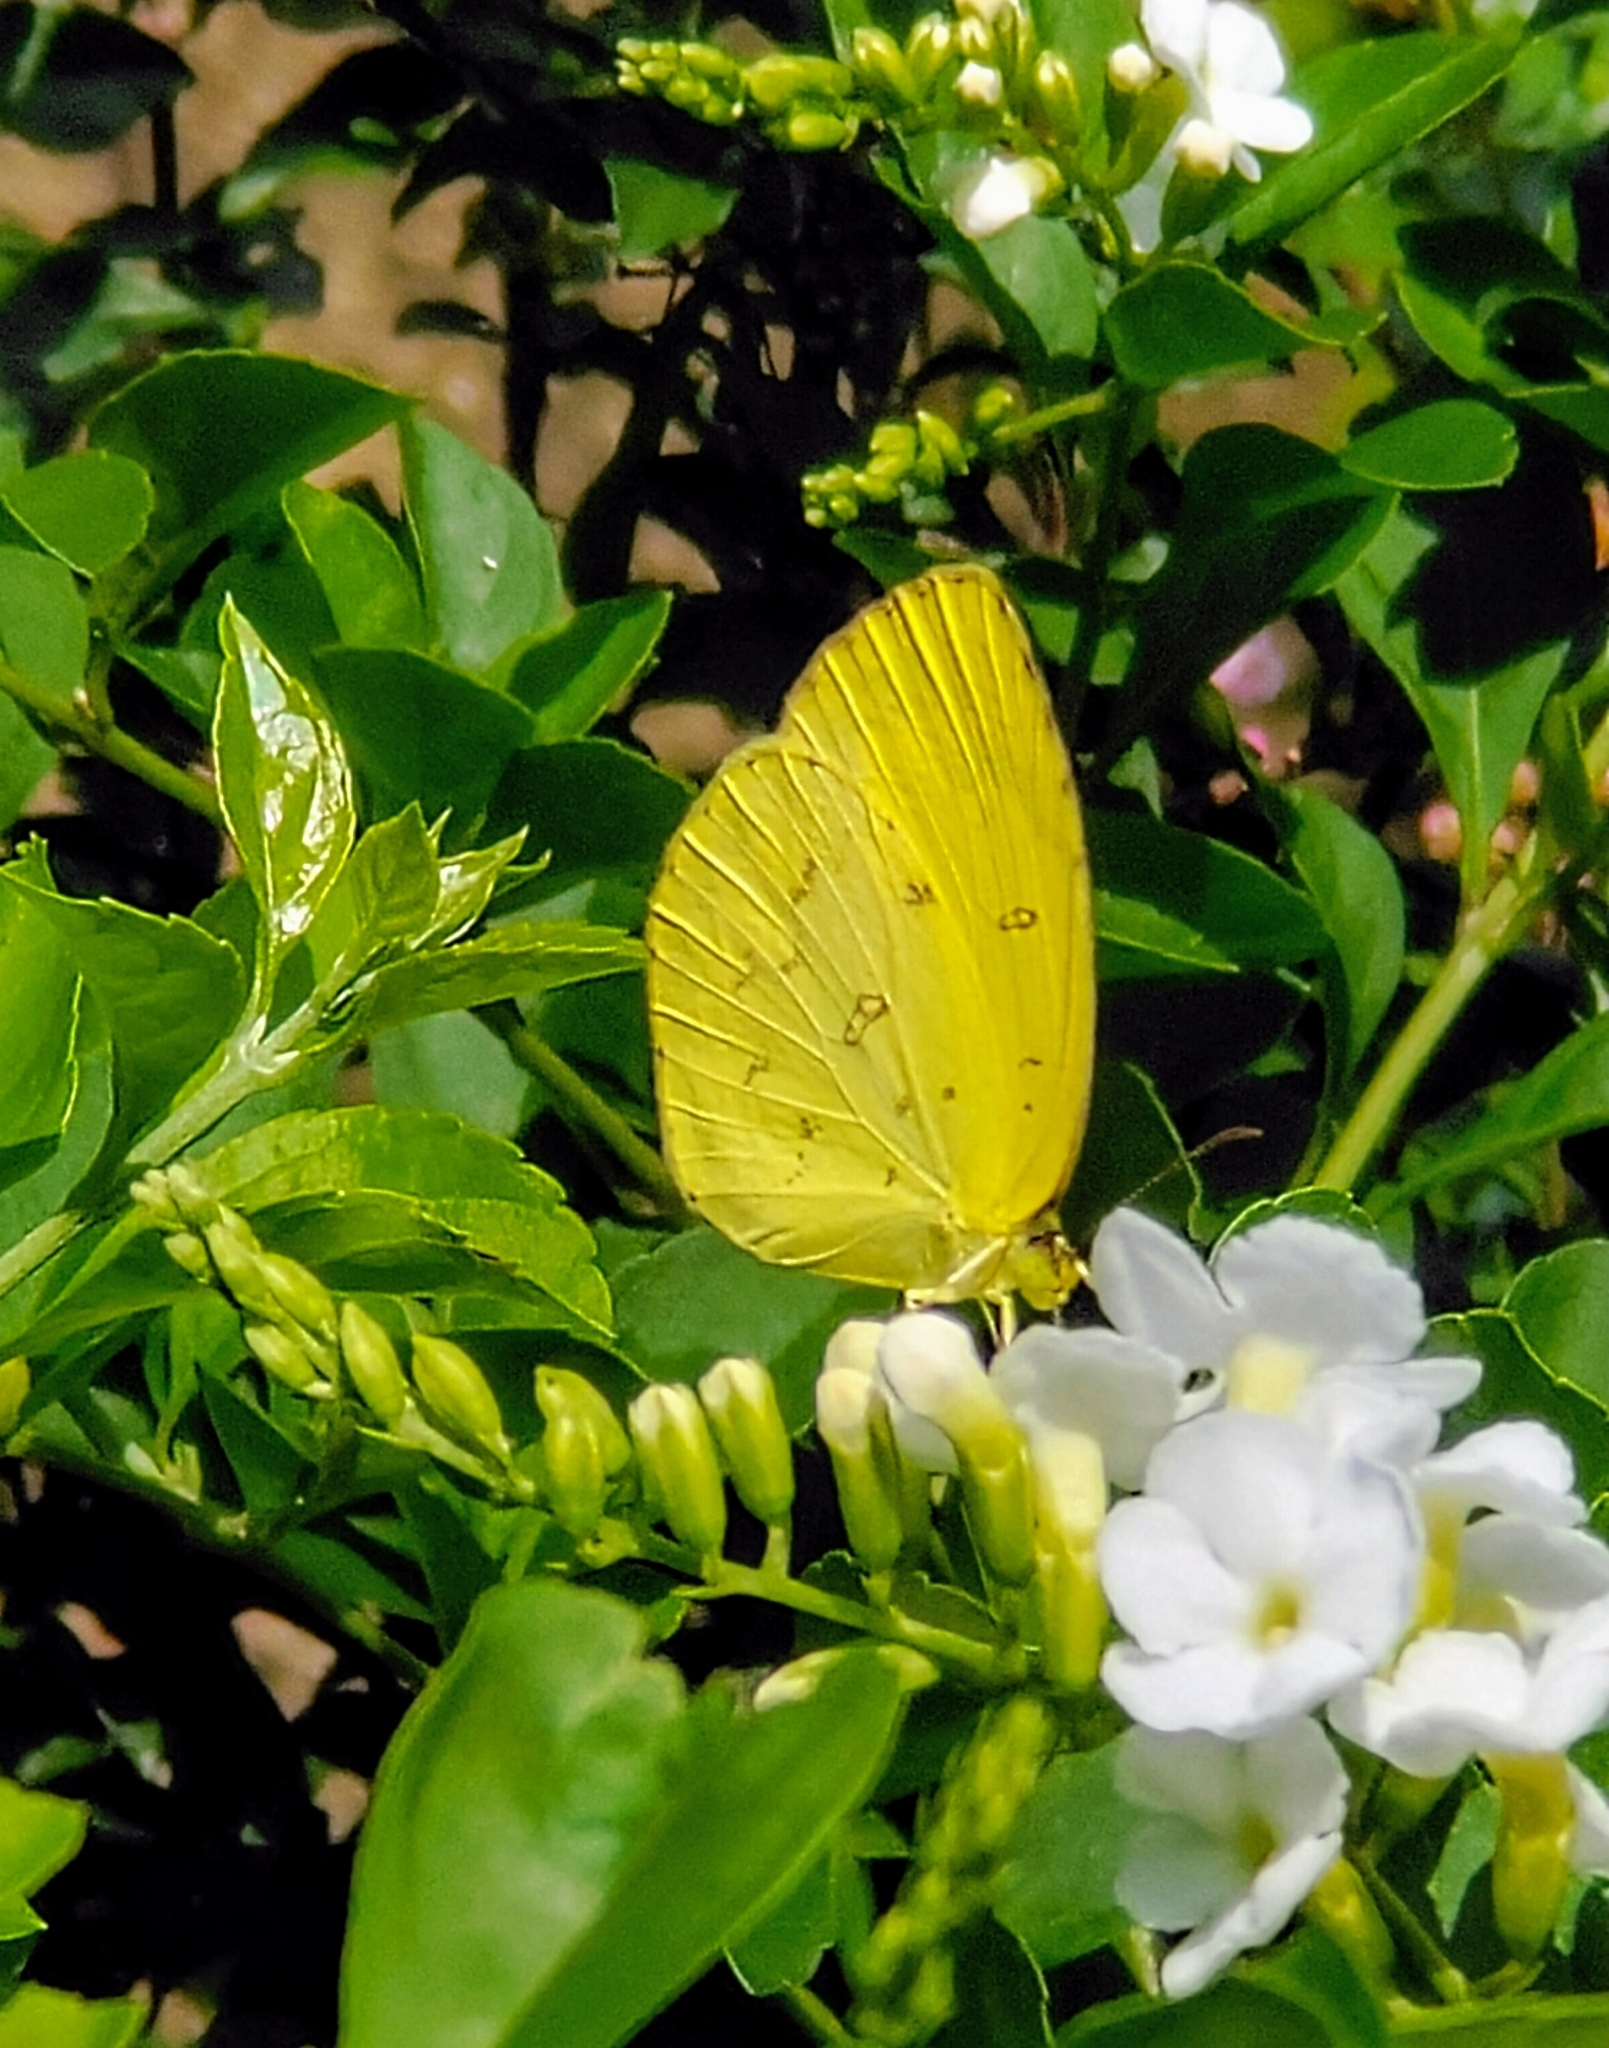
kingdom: Animalia
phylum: Arthropoda
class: Insecta
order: Lepidoptera
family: Pieridae
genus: Eurema
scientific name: Eurema hecabe
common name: Pale grass yellow
